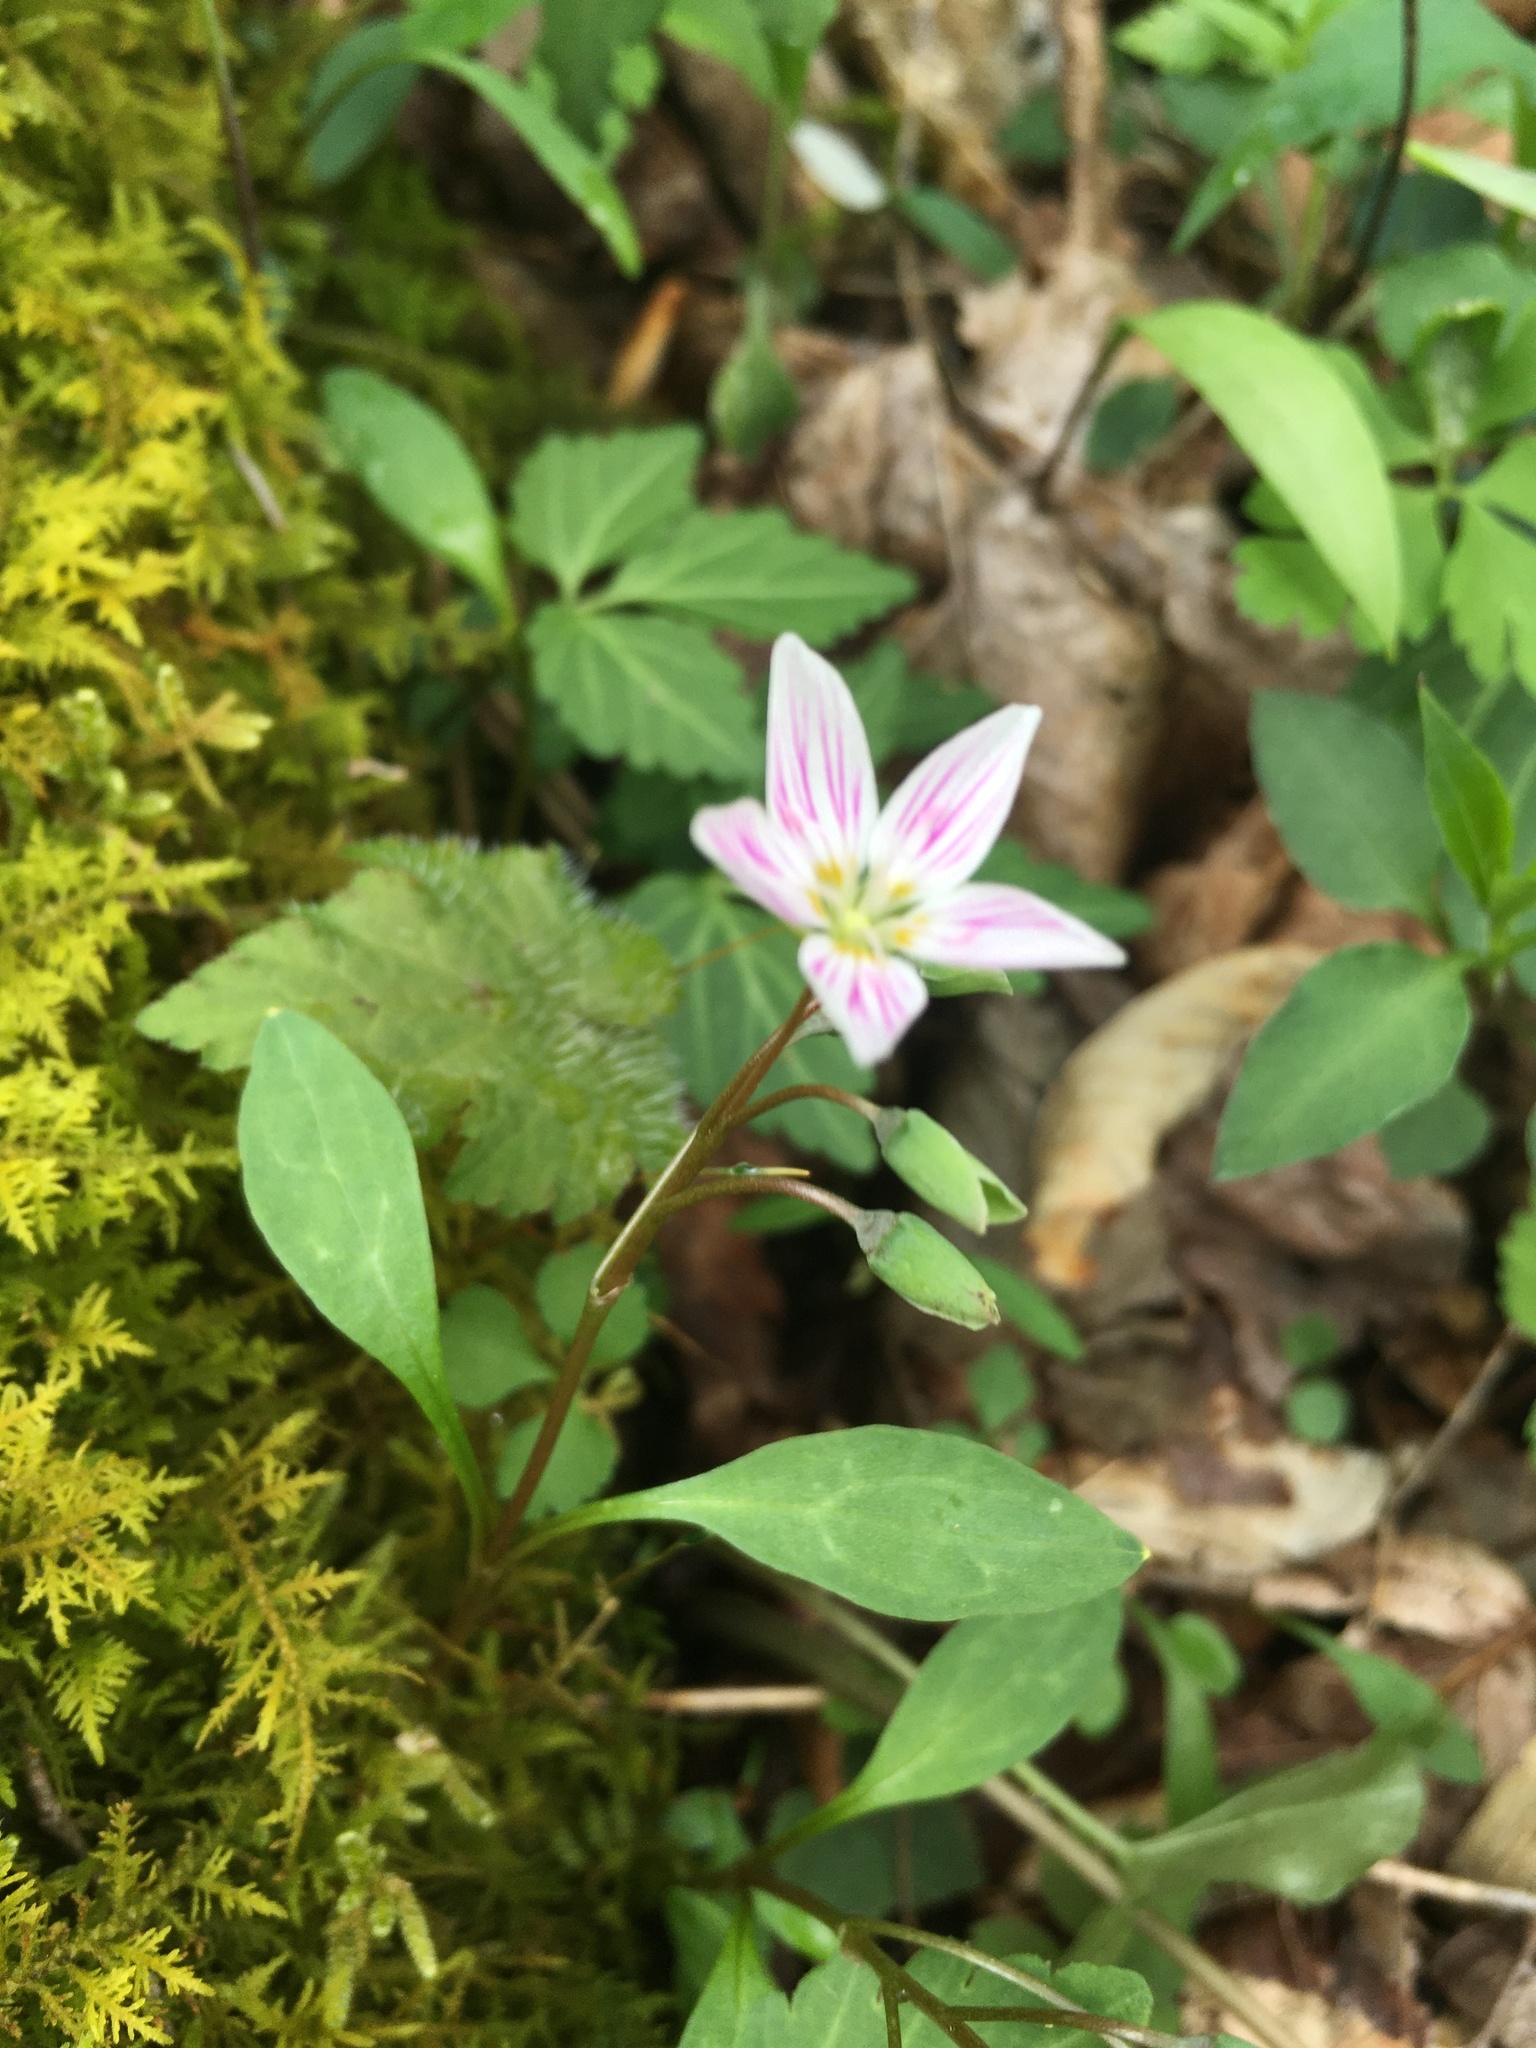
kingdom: Plantae
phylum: Tracheophyta
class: Magnoliopsida
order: Caryophyllales
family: Montiaceae
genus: Claytonia
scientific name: Claytonia caroliniana
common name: Carolina spring beauty
